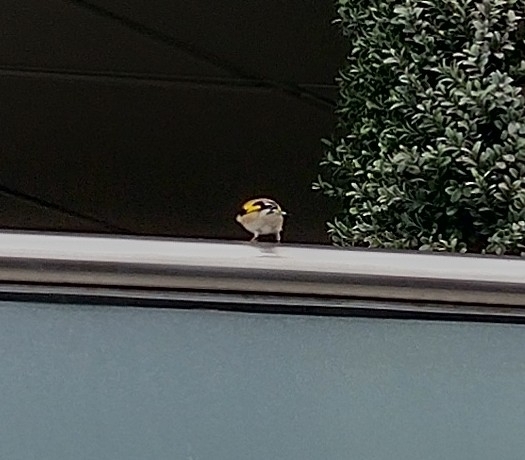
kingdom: Animalia
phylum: Chordata
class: Aves
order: Passeriformes
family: Fringillidae
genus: Carduelis
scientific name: Carduelis carduelis
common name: European goldfinch
